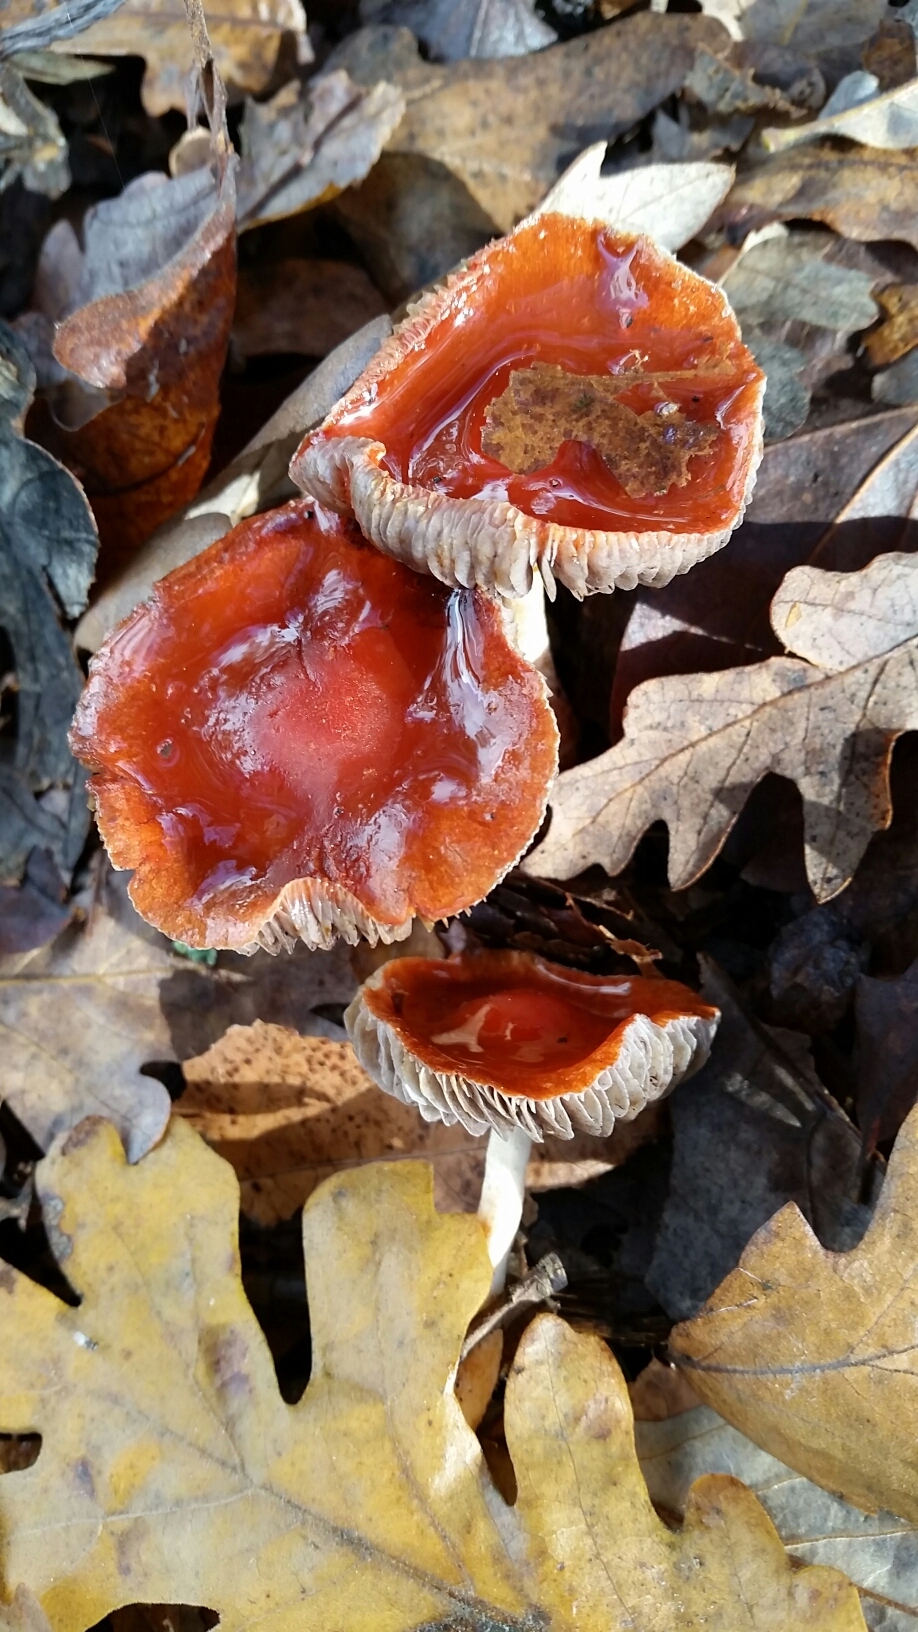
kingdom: Fungi
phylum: Basidiomycota
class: Agaricomycetes
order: Agaricales
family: Strophariaceae
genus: Leratiomyces
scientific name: Leratiomyces ceres
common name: Redlead roundhead
